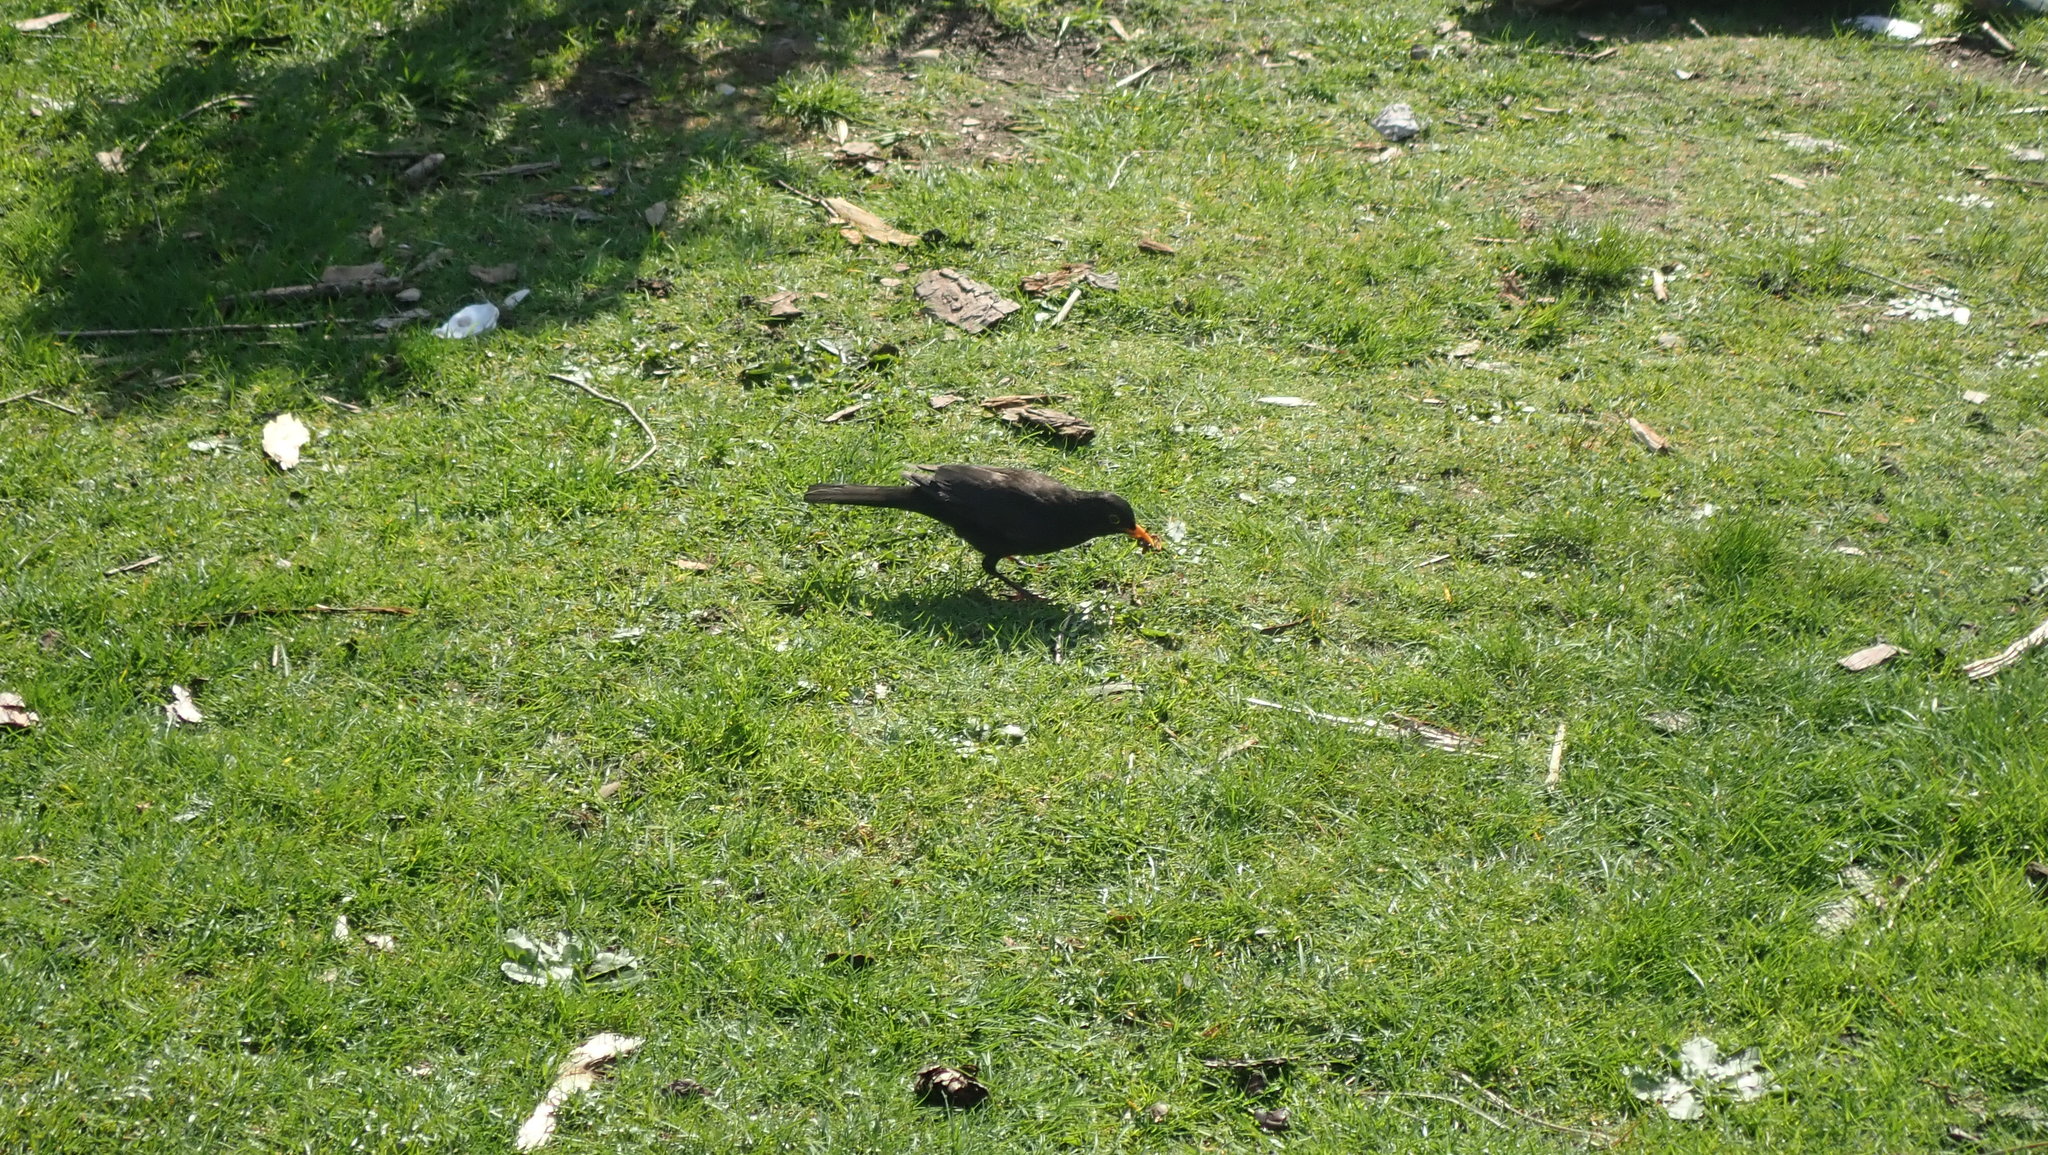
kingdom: Animalia
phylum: Chordata
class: Aves
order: Passeriformes
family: Turdidae
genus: Turdus
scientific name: Turdus merula
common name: Common blackbird
